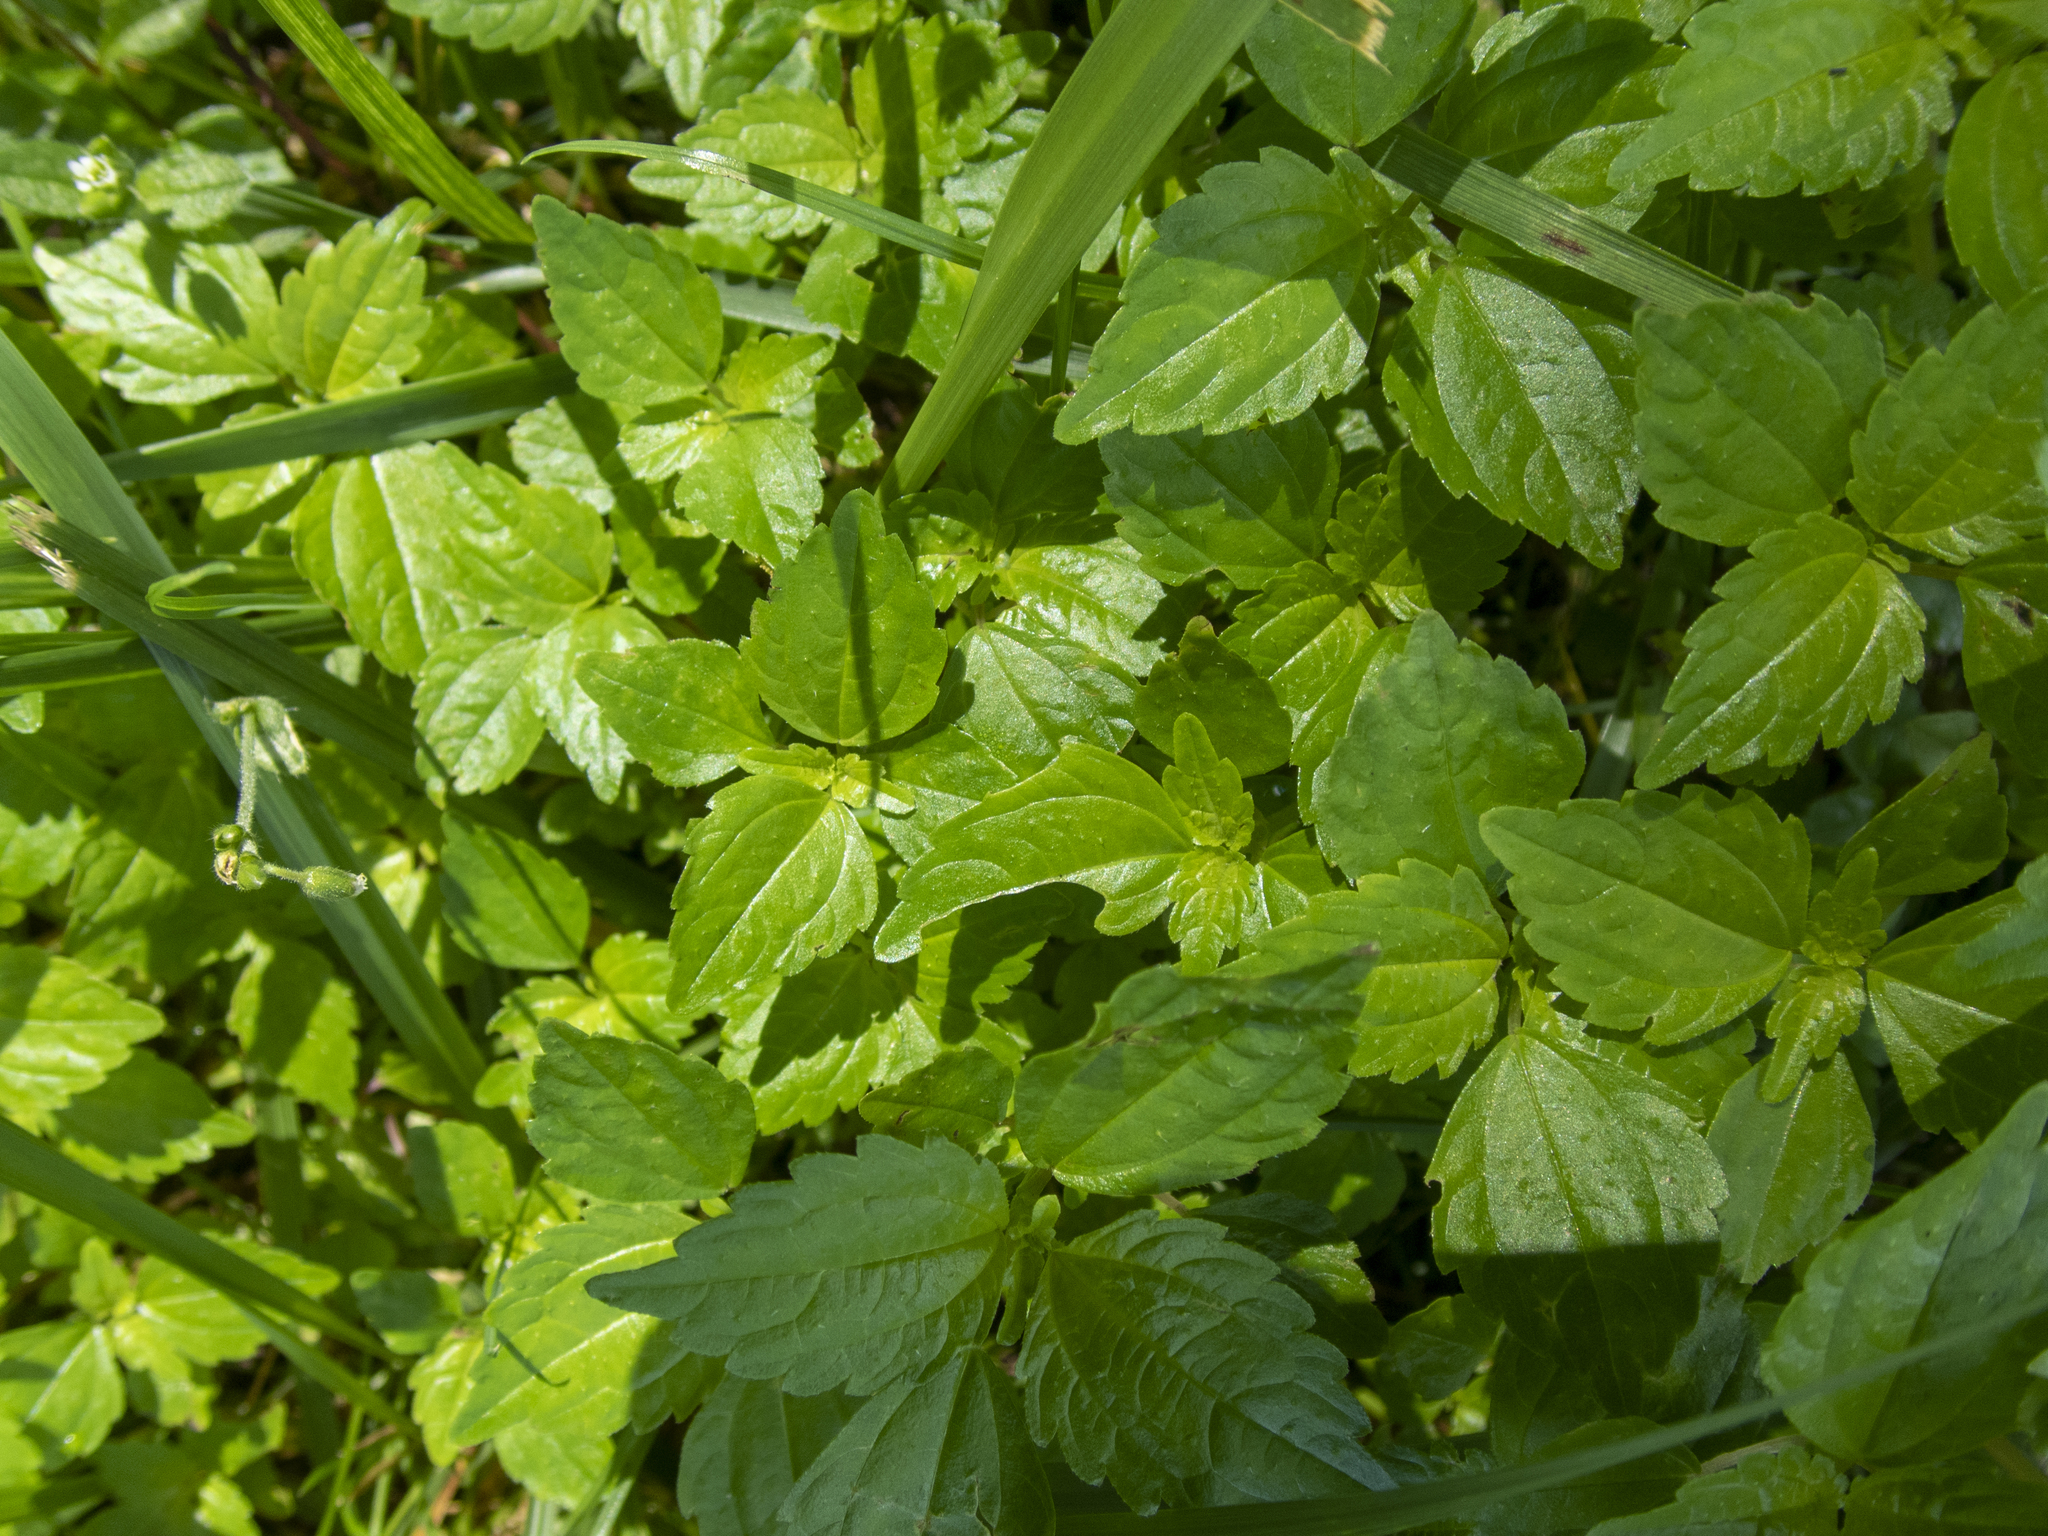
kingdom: Plantae
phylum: Tracheophyta
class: Magnoliopsida
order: Rosales
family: Urticaceae
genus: Pilea
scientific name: Pilea pumila
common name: Clearweed
